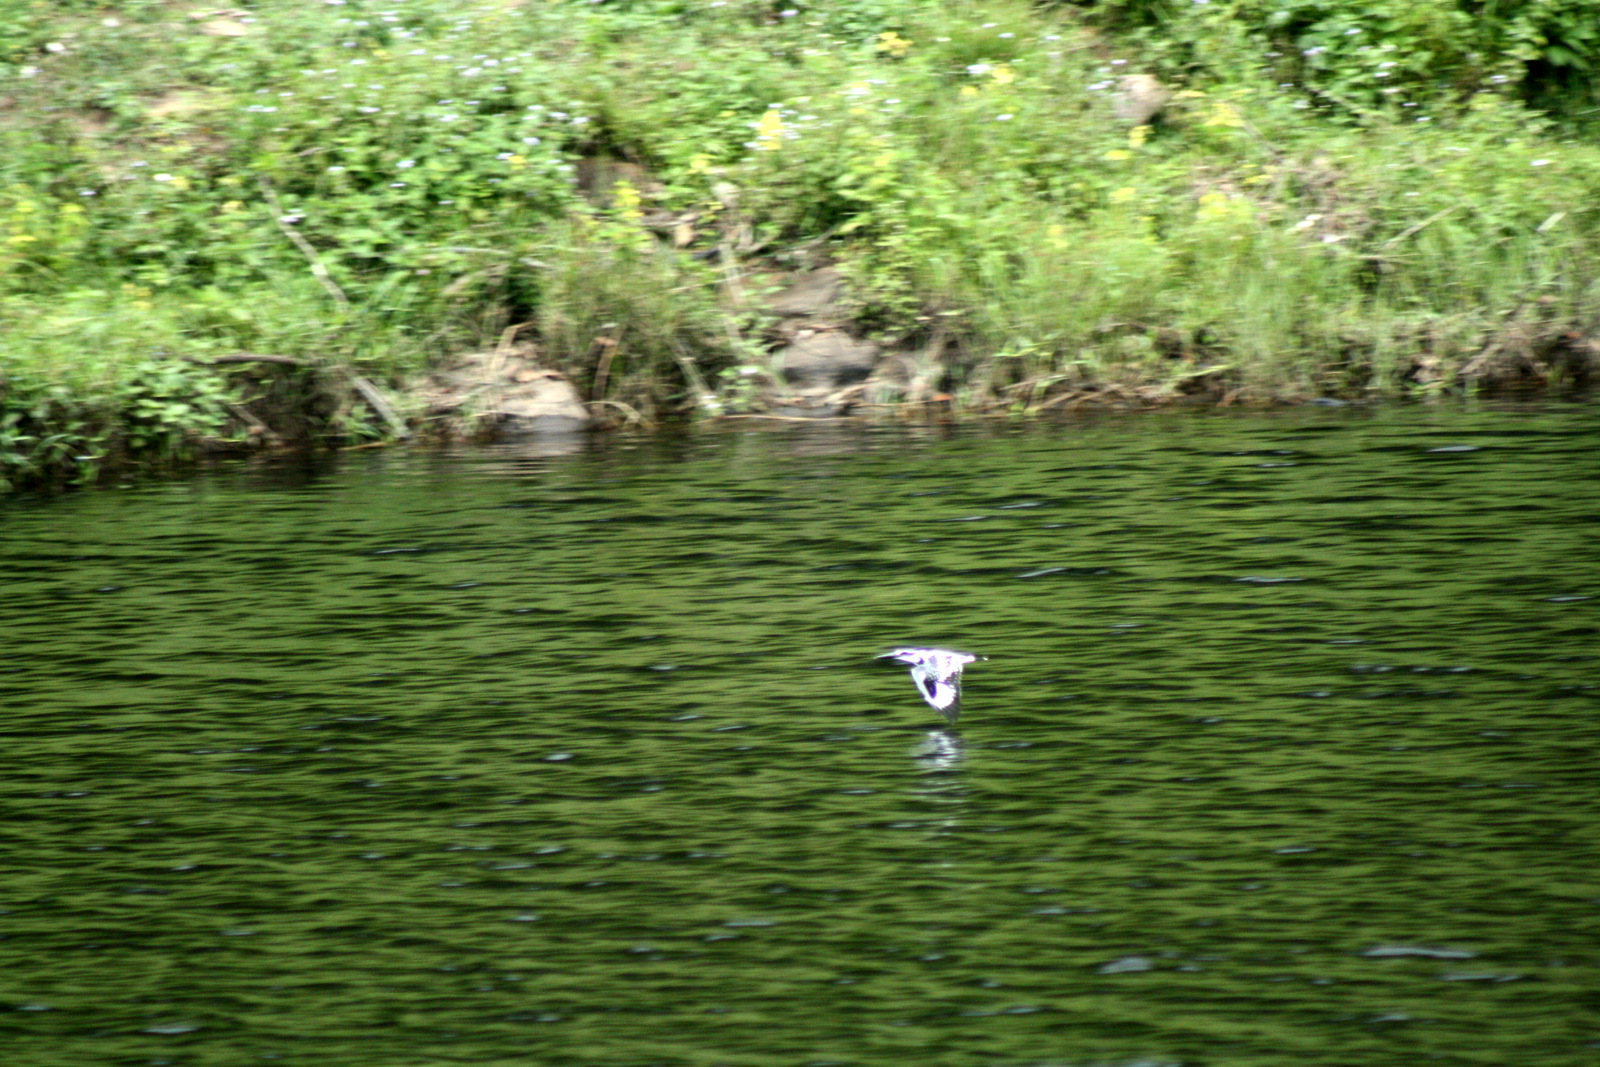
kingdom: Animalia
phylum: Chordata
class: Aves
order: Coraciiformes
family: Alcedinidae
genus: Ceryle
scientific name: Ceryle rudis
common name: Pied kingfisher
